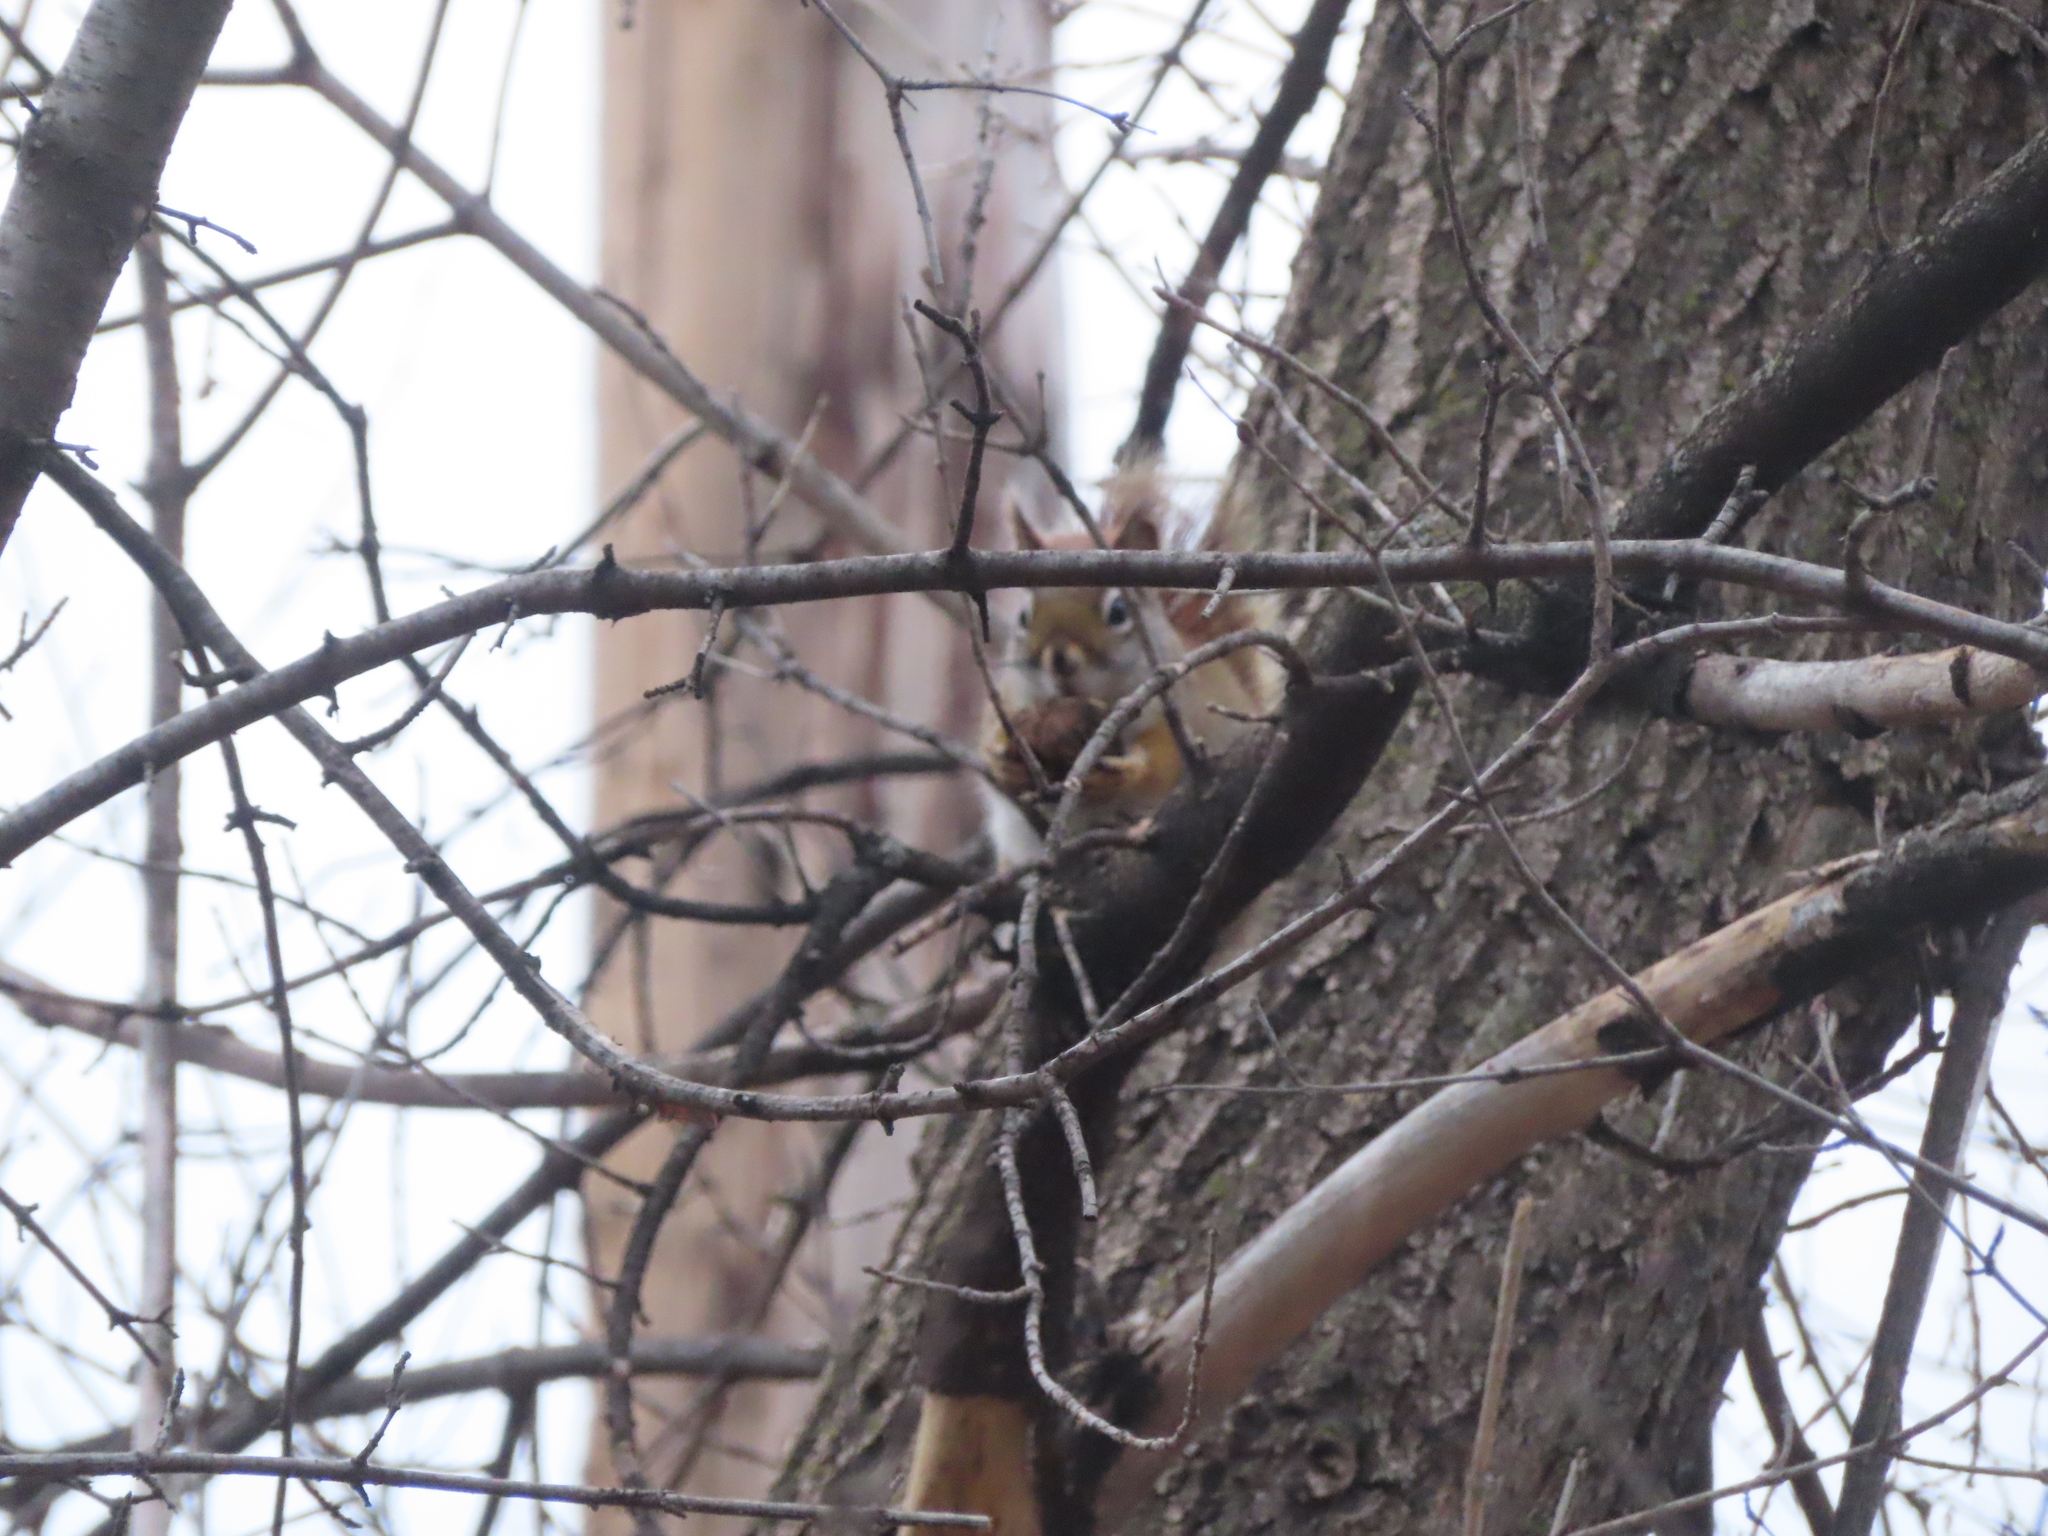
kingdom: Animalia
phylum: Chordata
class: Mammalia
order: Rodentia
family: Sciuridae
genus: Tamiasciurus
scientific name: Tamiasciurus hudsonicus
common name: Red squirrel
